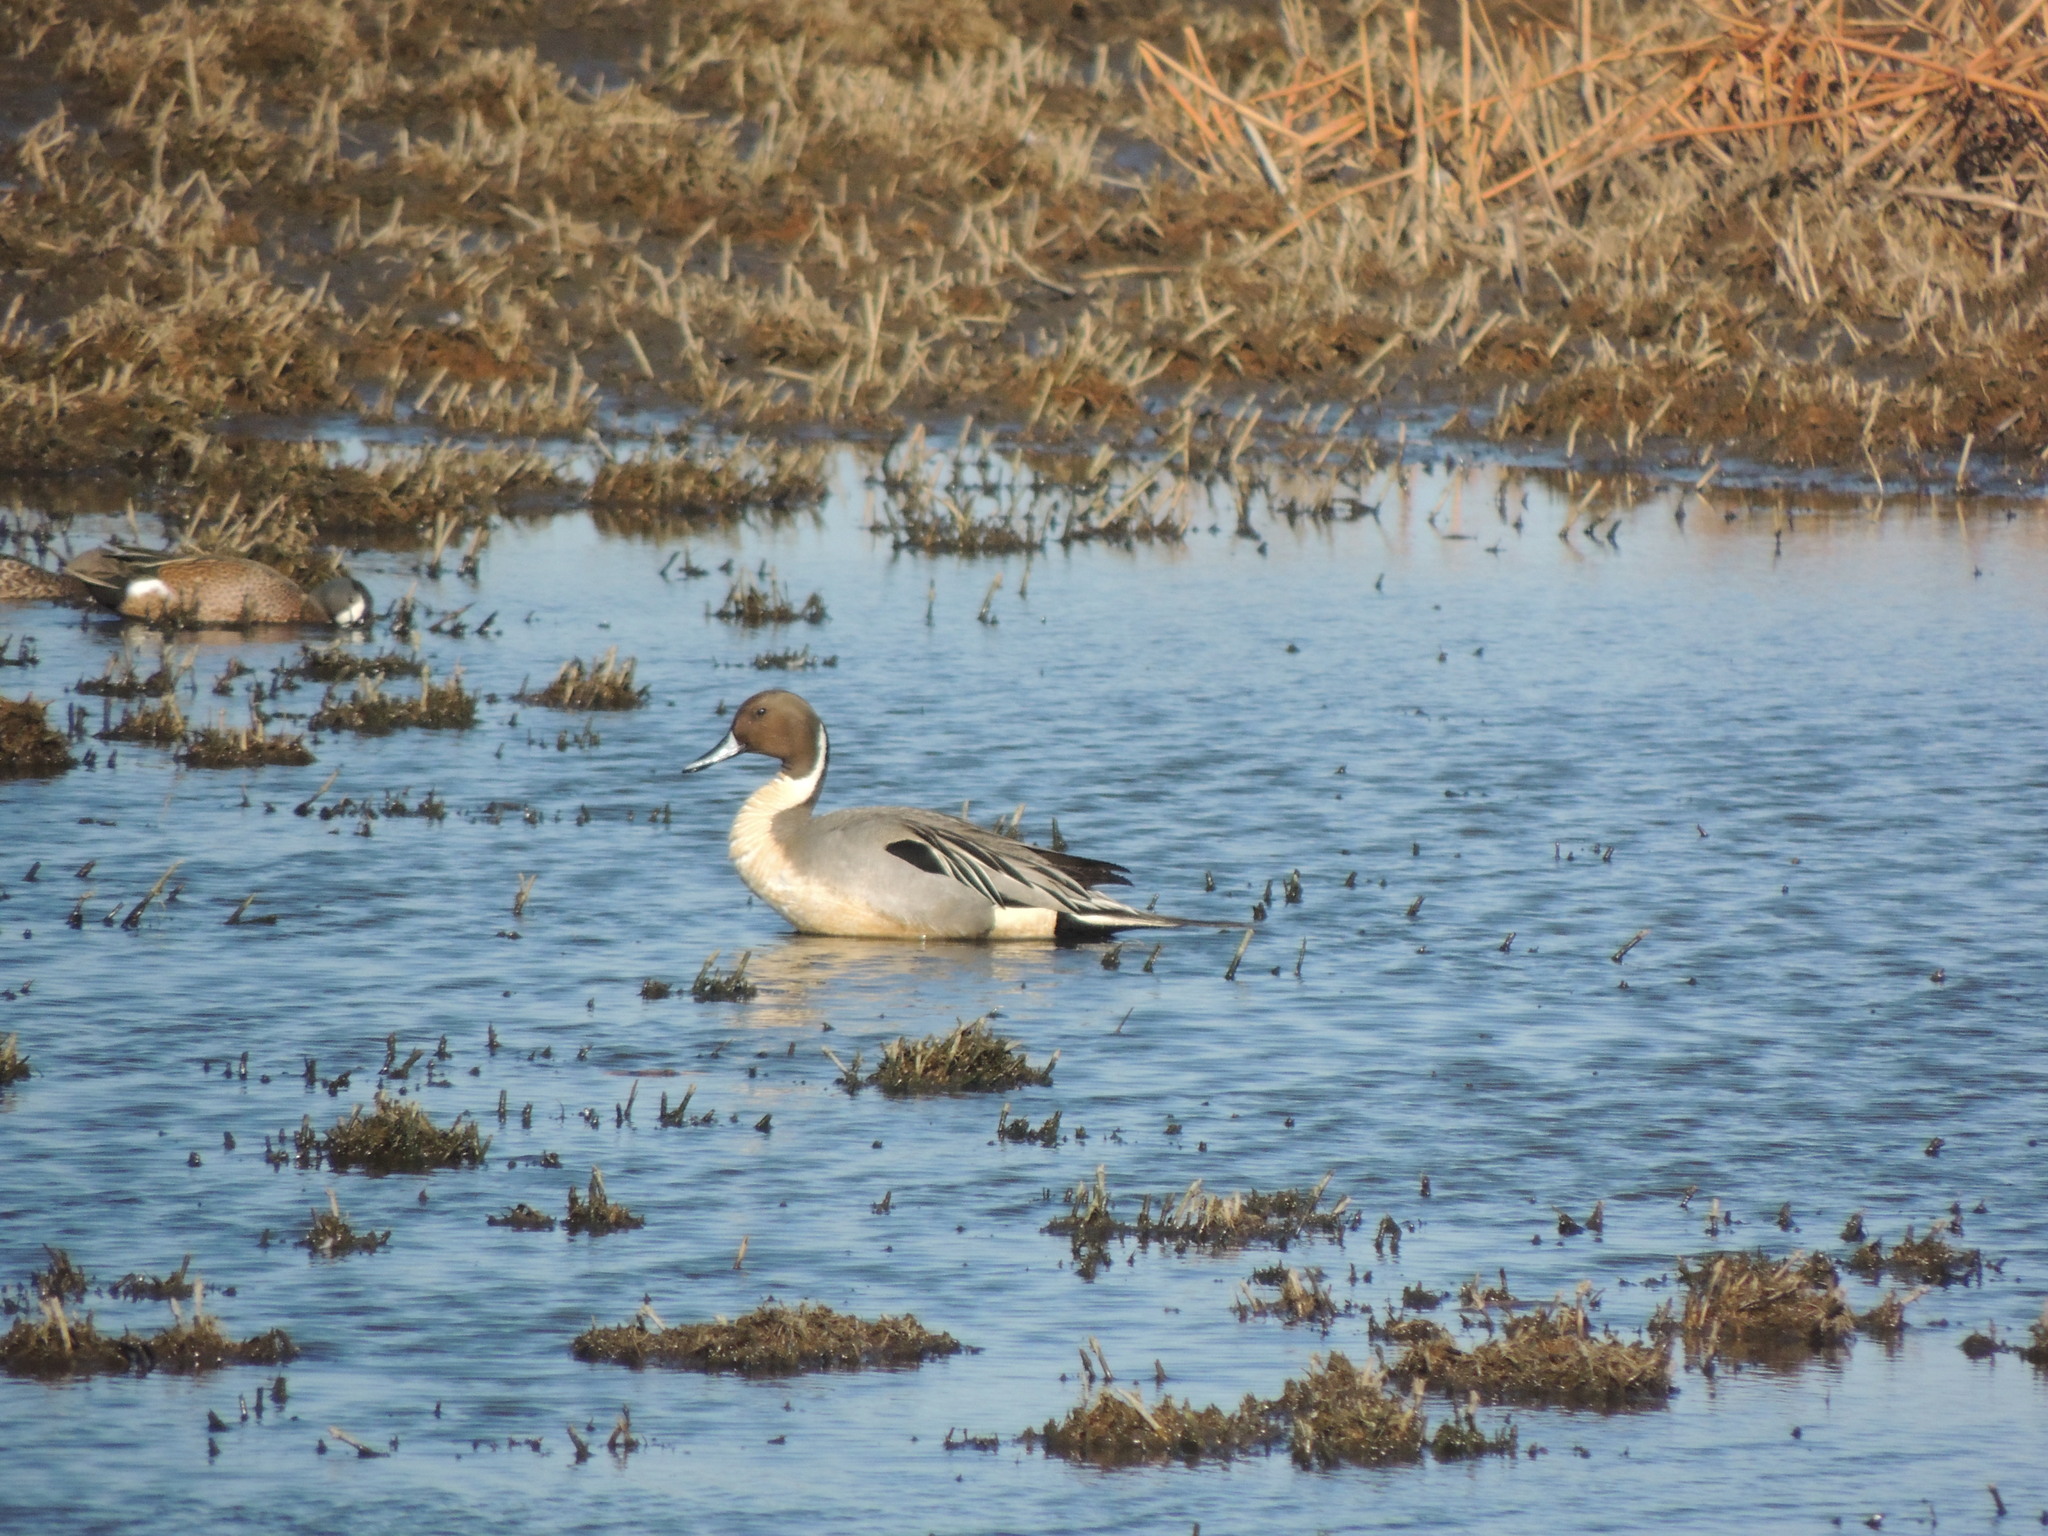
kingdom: Animalia
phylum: Chordata
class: Aves
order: Anseriformes
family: Anatidae
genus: Anas
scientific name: Anas acuta
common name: Northern pintail
